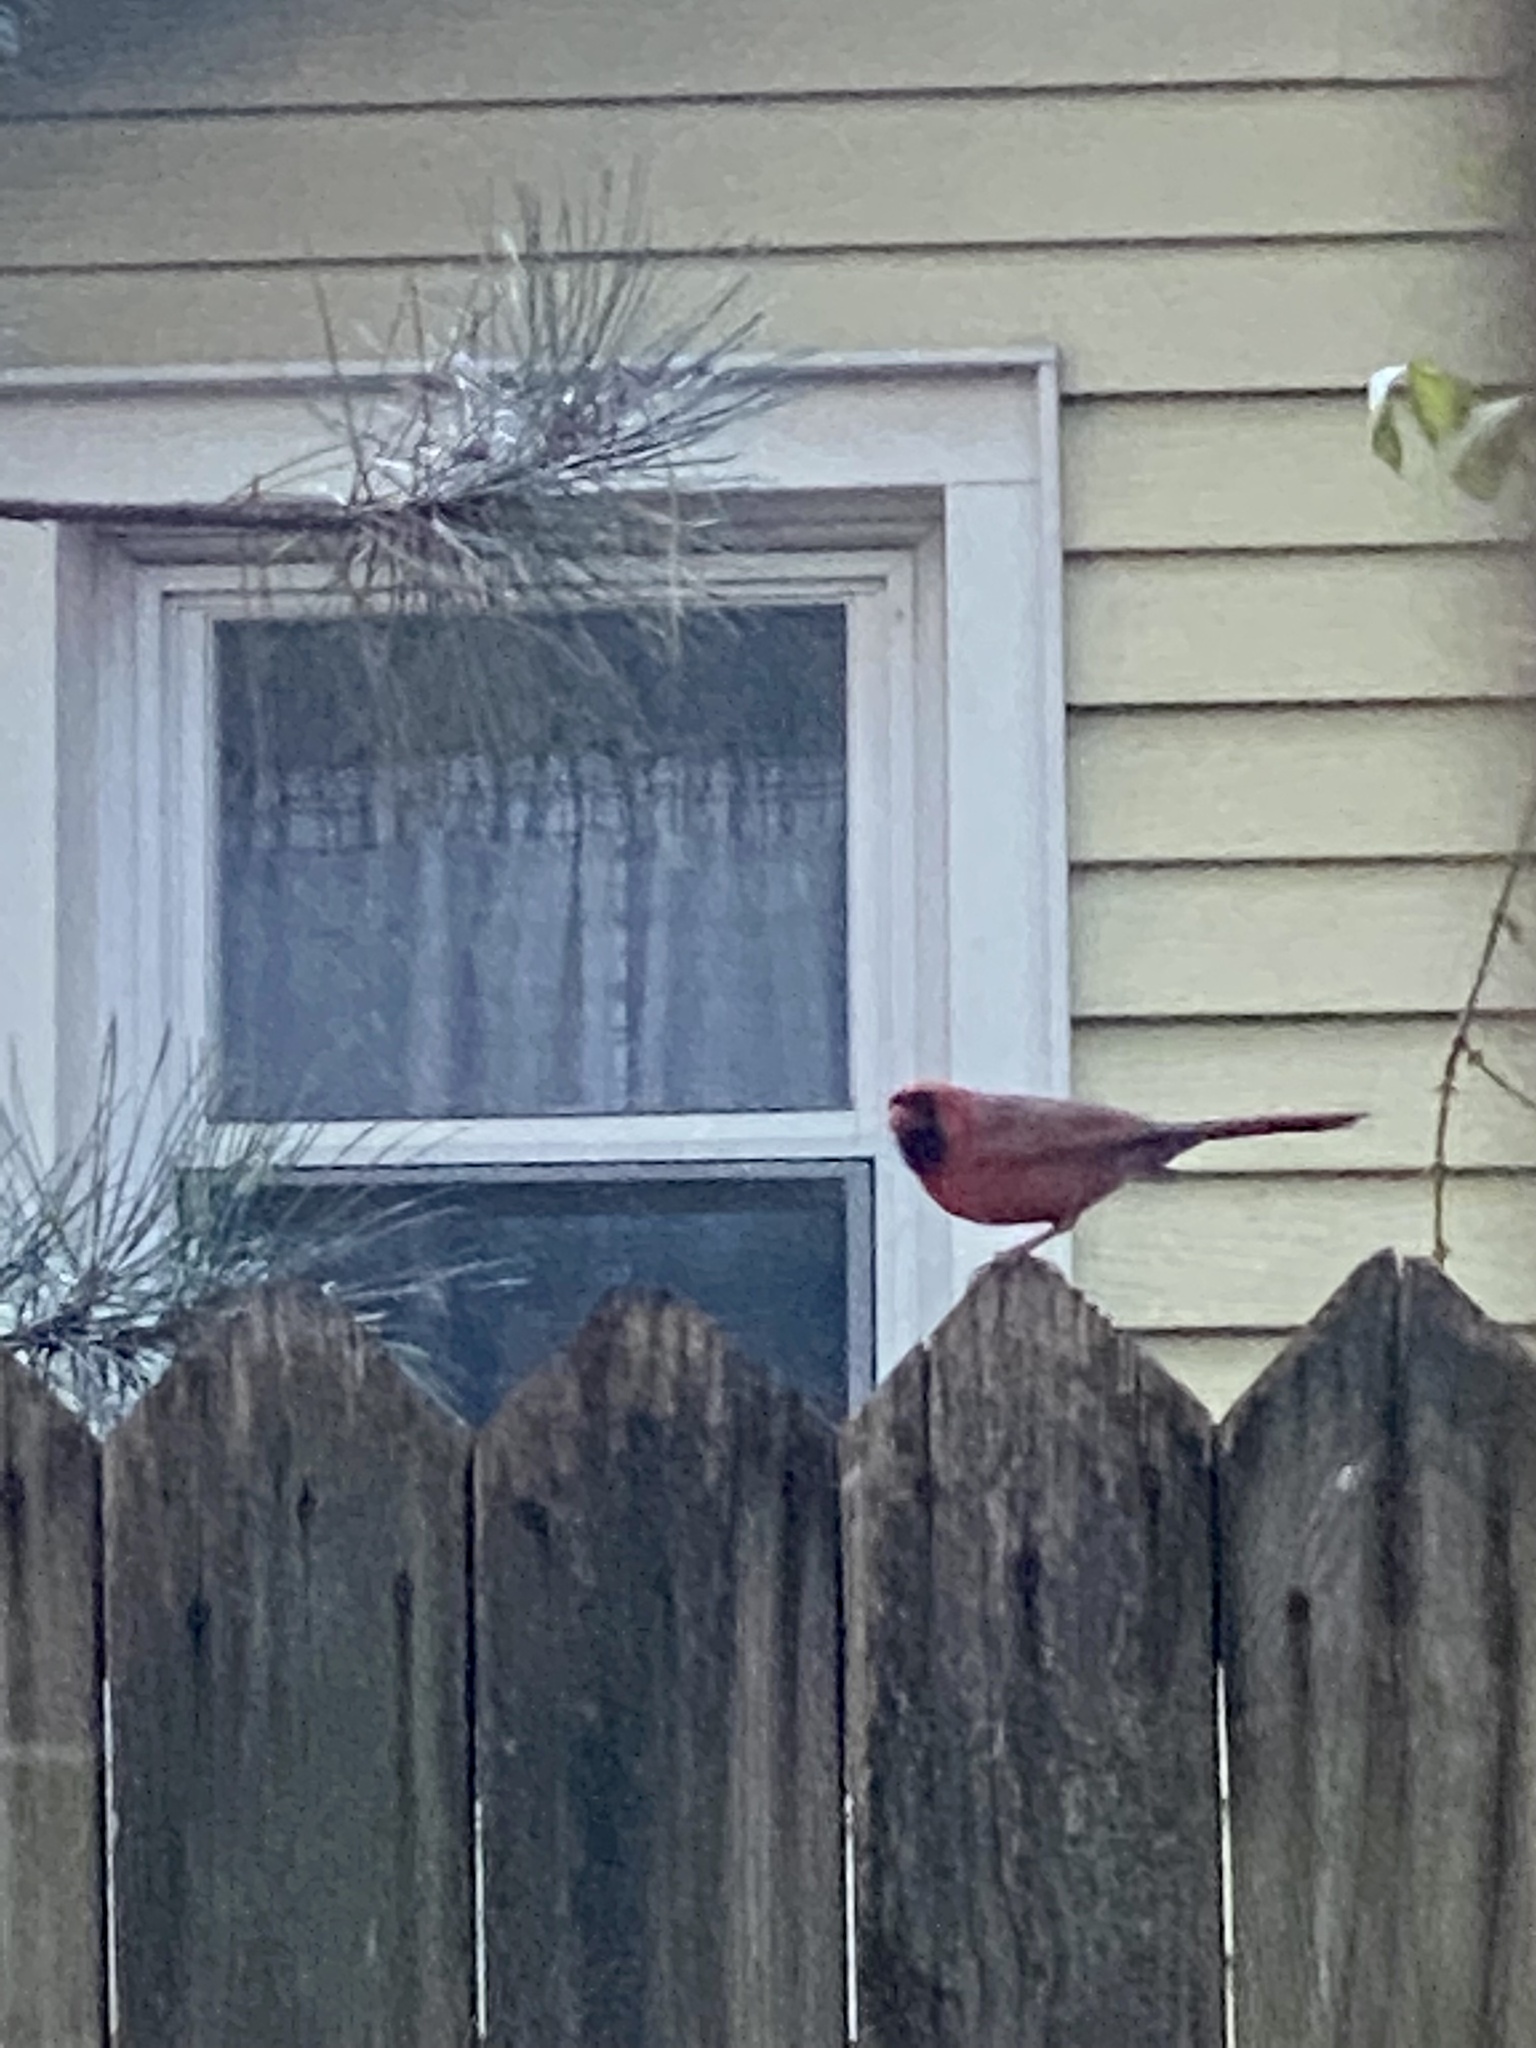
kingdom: Animalia
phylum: Chordata
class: Aves
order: Passeriformes
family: Cardinalidae
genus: Cardinalis
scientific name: Cardinalis cardinalis
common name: Northern cardinal
